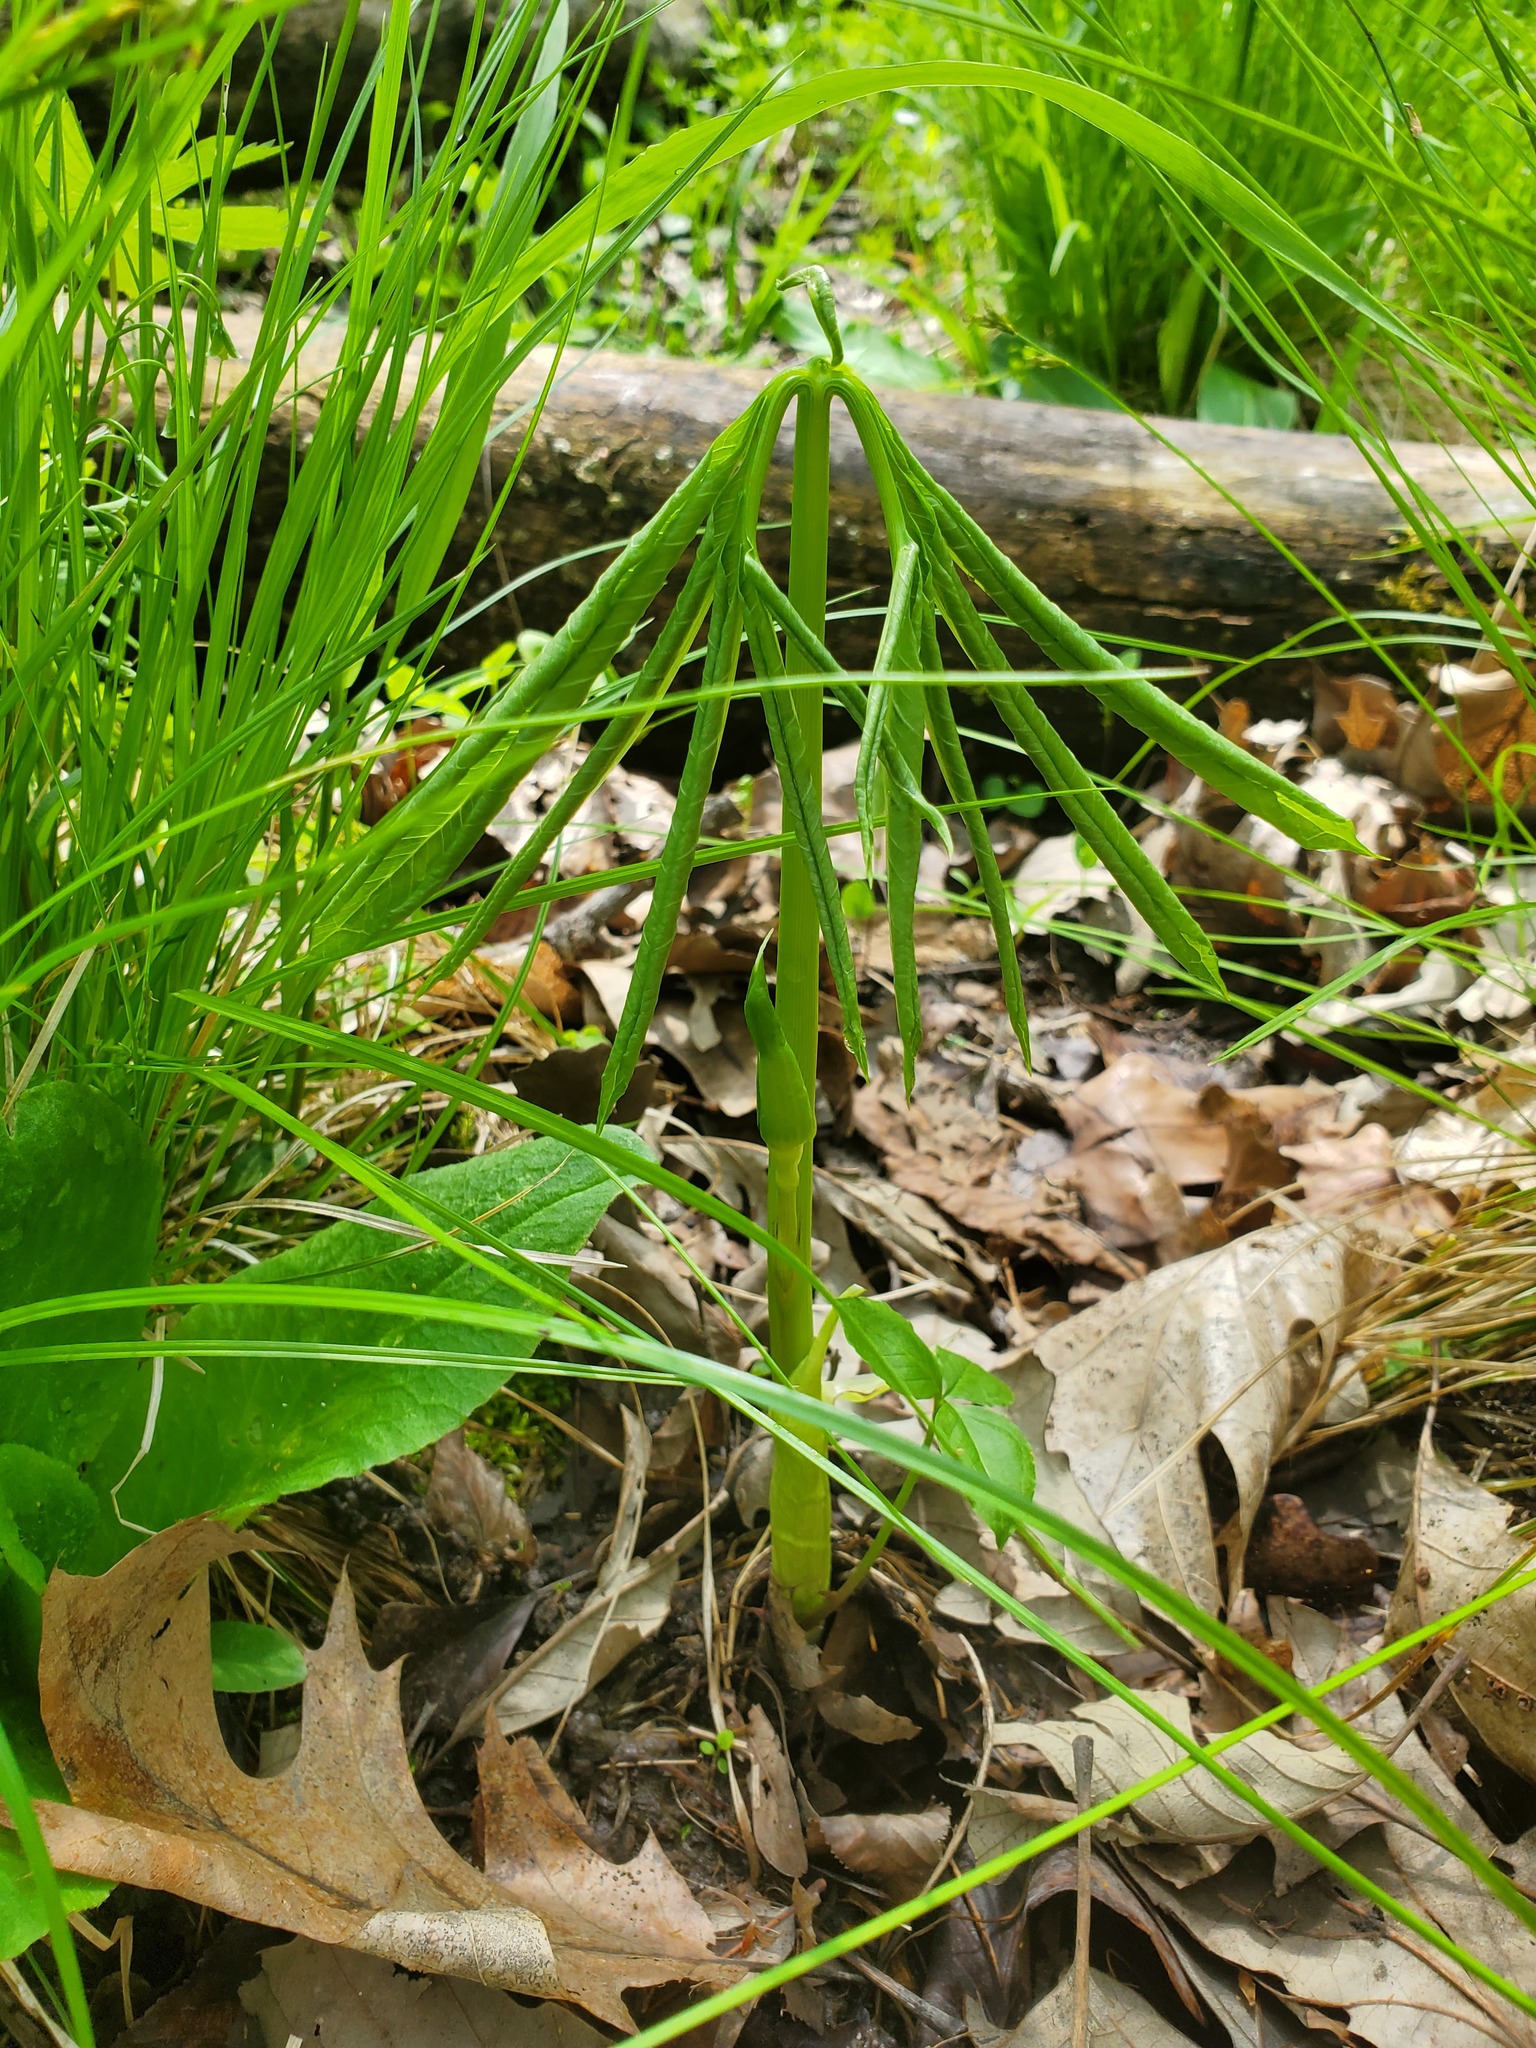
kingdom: Plantae
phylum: Tracheophyta
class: Liliopsida
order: Alismatales
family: Araceae
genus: Arisaema
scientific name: Arisaema dracontium
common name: Dragon-arum
